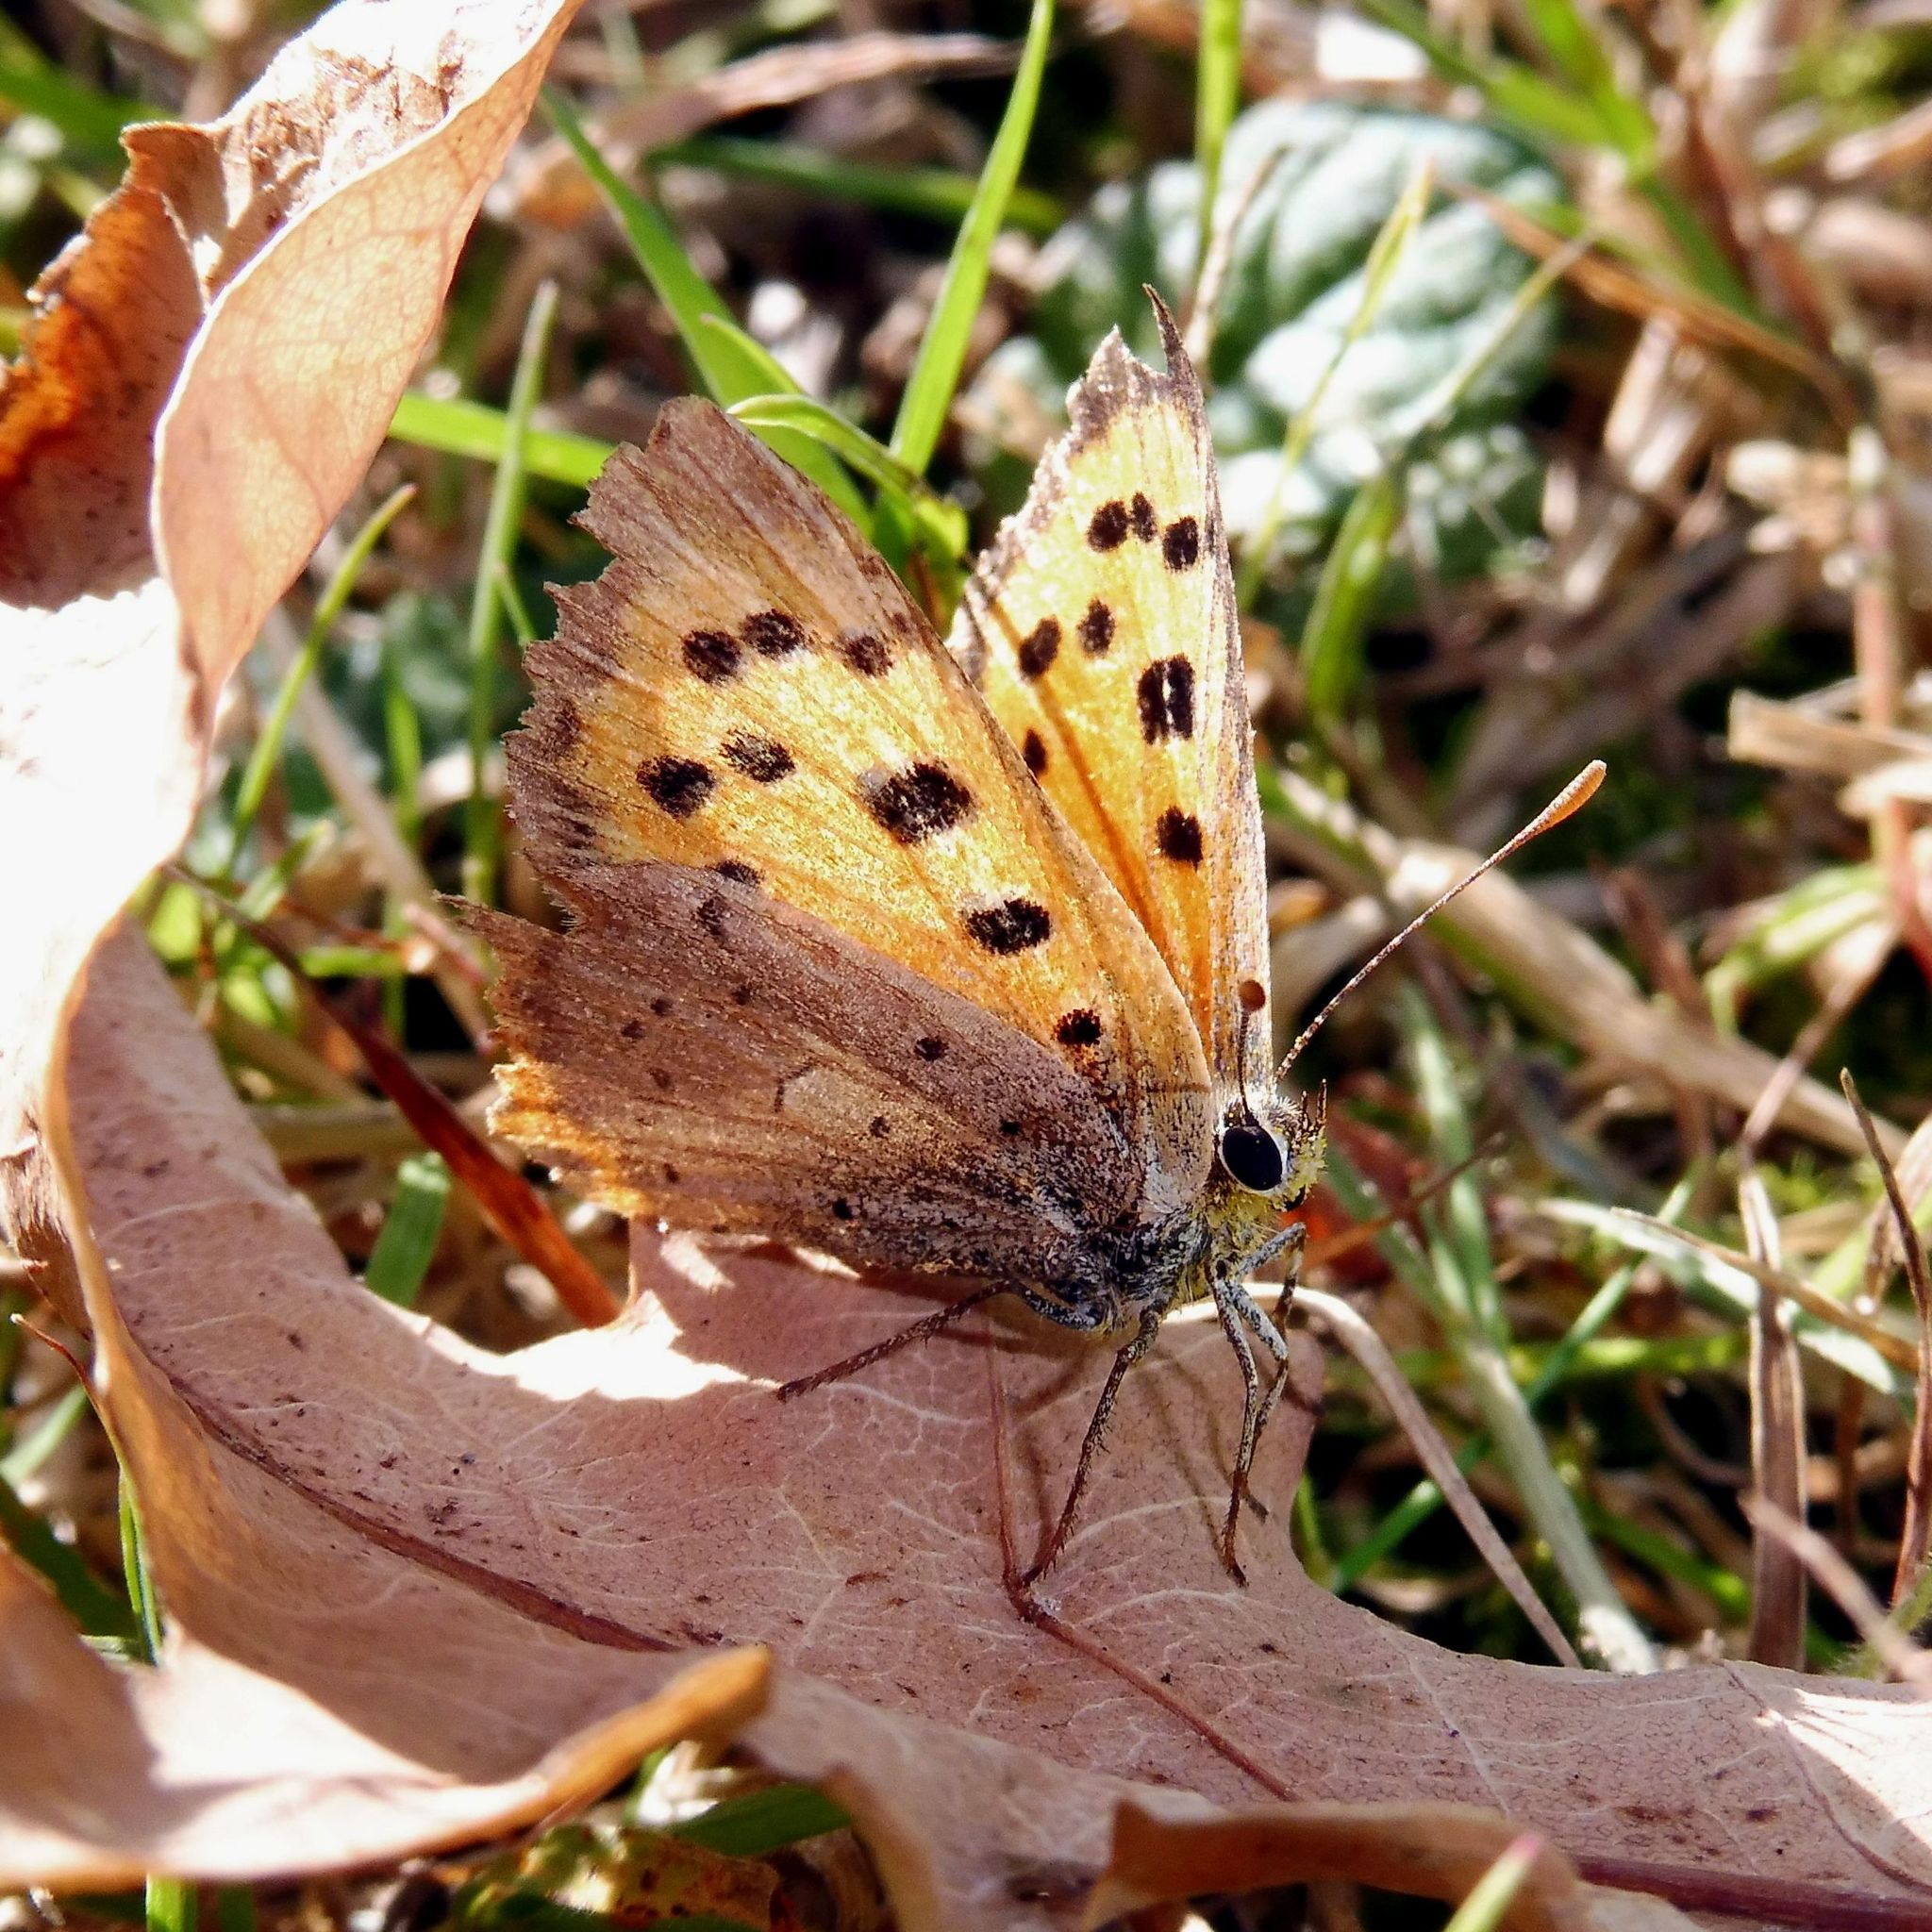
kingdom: Animalia
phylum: Arthropoda
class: Insecta
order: Lepidoptera
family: Lycaenidae
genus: Lycaena
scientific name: Lycaena phlaeas
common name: Small copper
